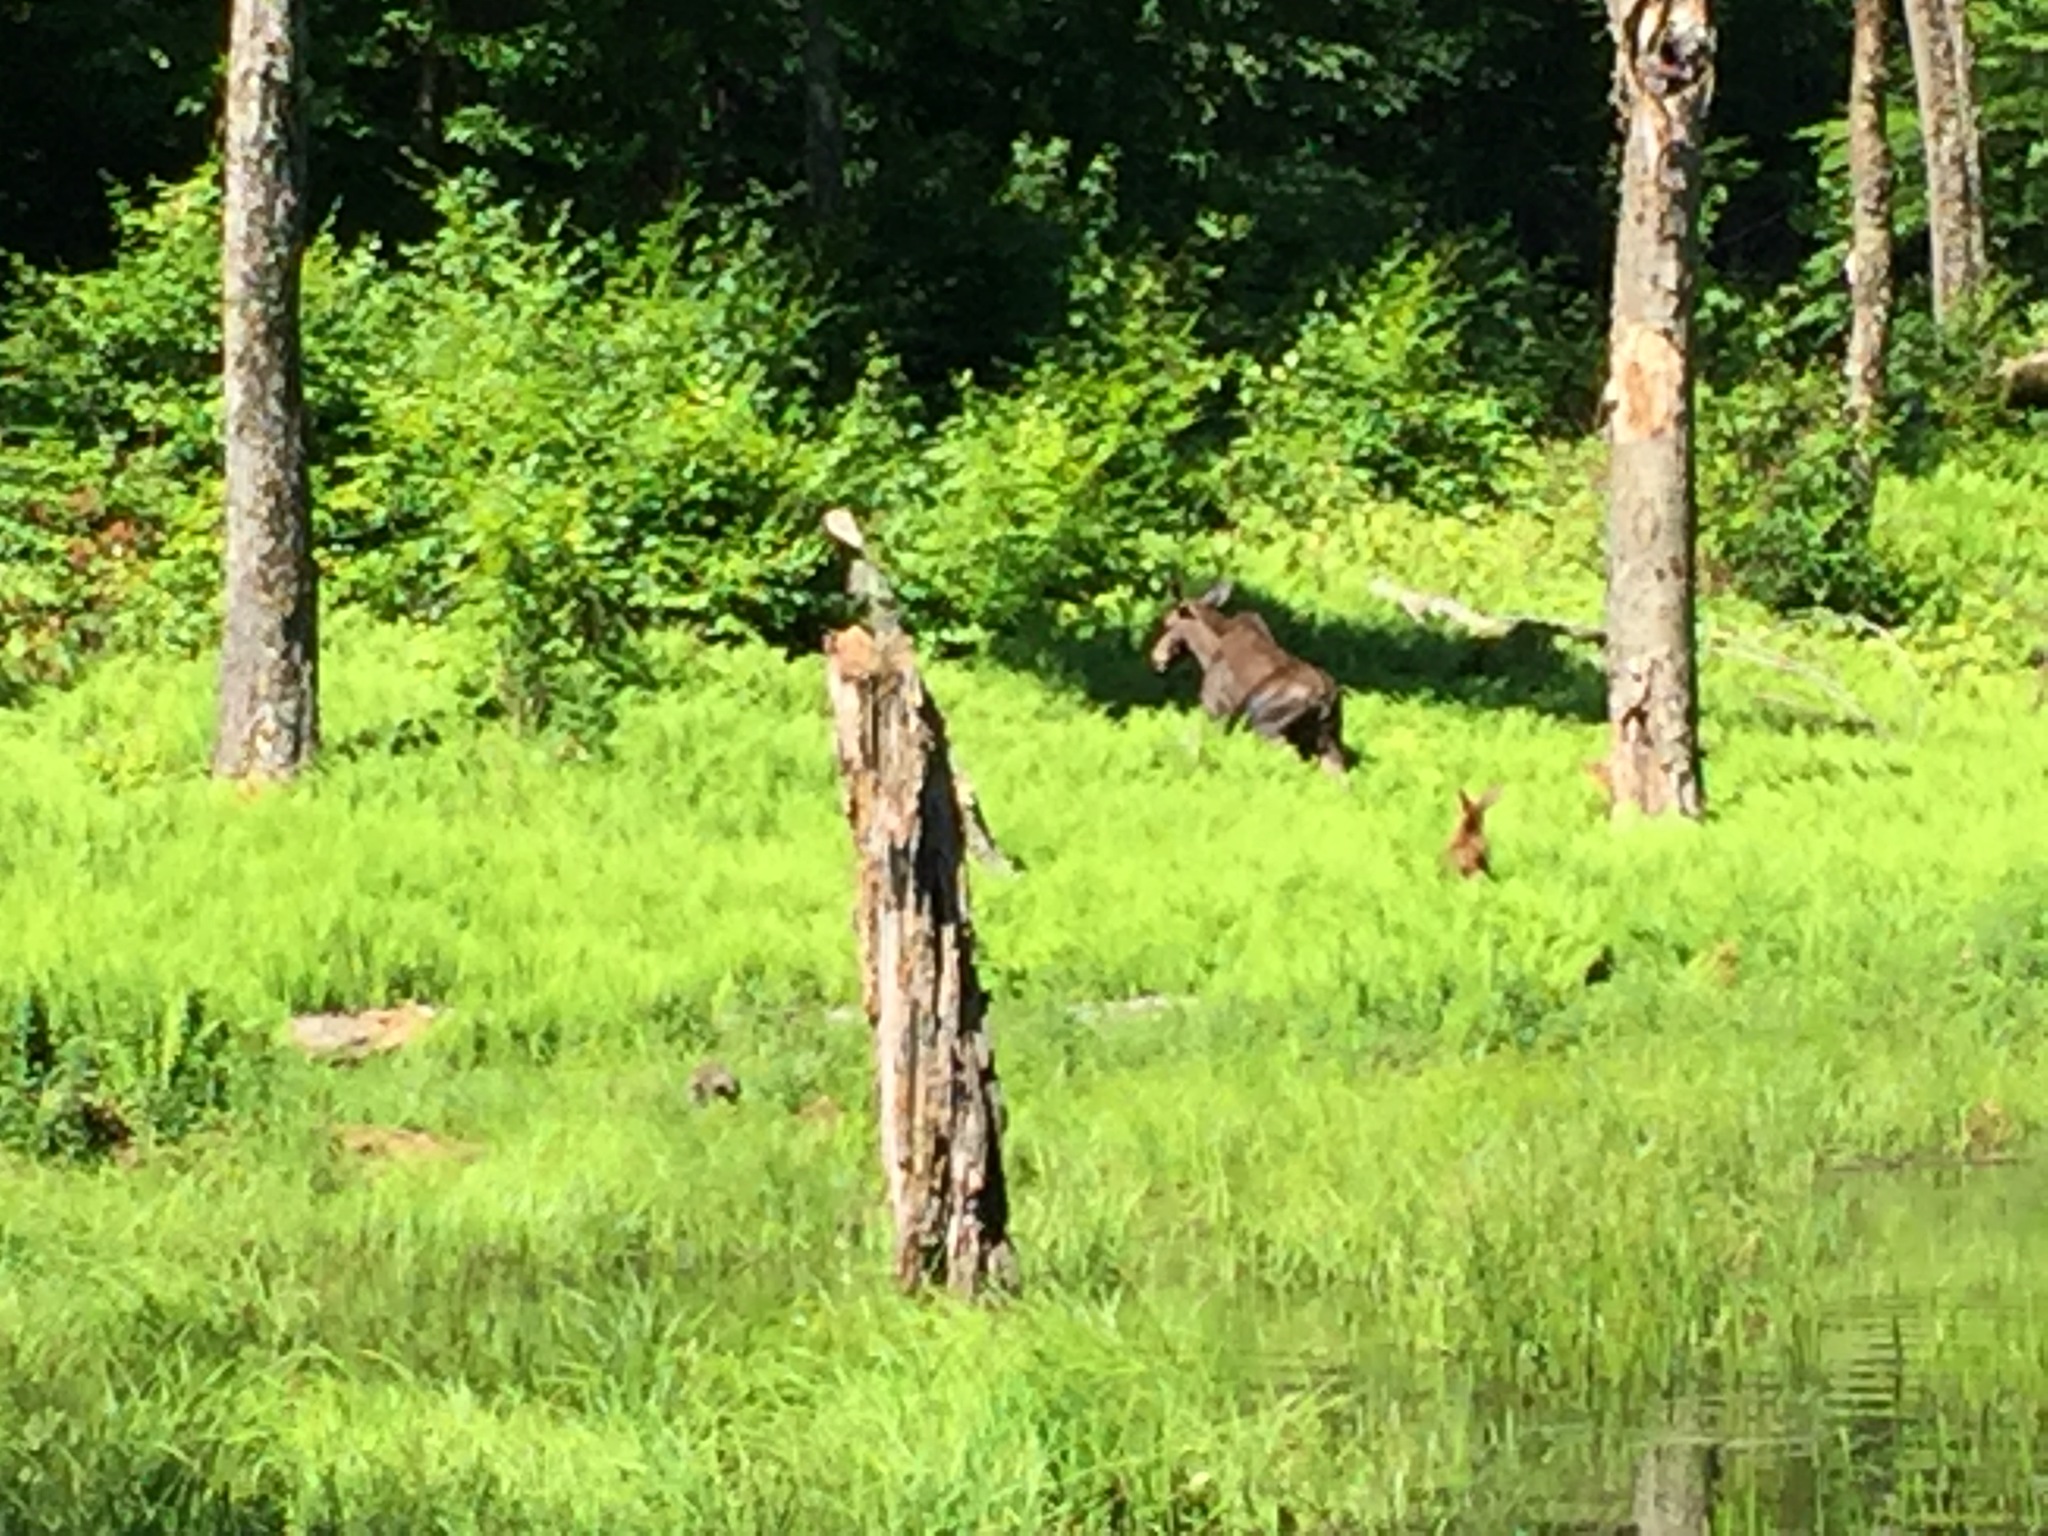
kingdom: Animalia
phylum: Chordata
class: Mammalia
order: Artiodactyla
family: Cervidae
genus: Alces
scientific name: Alces alces
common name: Moose
